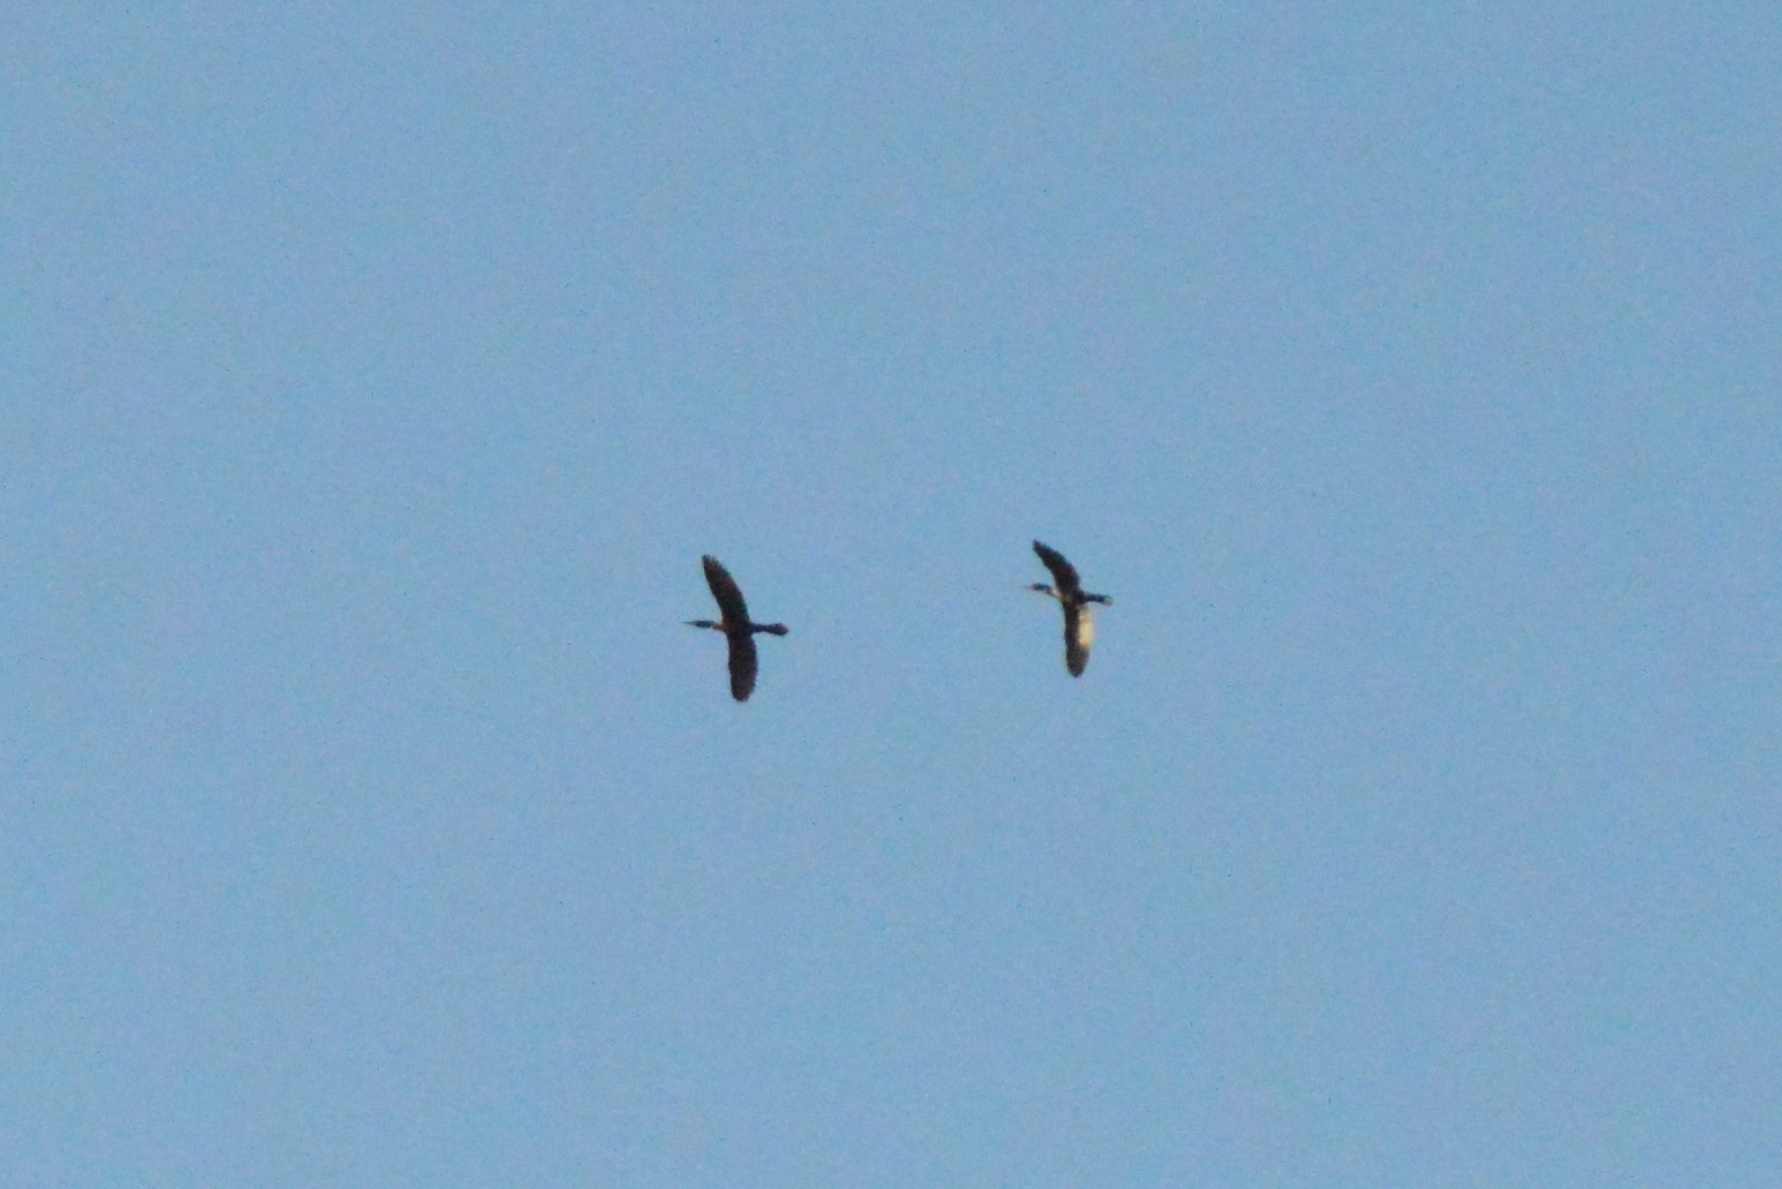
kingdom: Animalia
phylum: Chordata
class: Aves
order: Suliformes
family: Phalacrocoracidae
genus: Phalacrocorax
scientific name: Phalacrocorax brasilianus
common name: Neotropic cormorant
